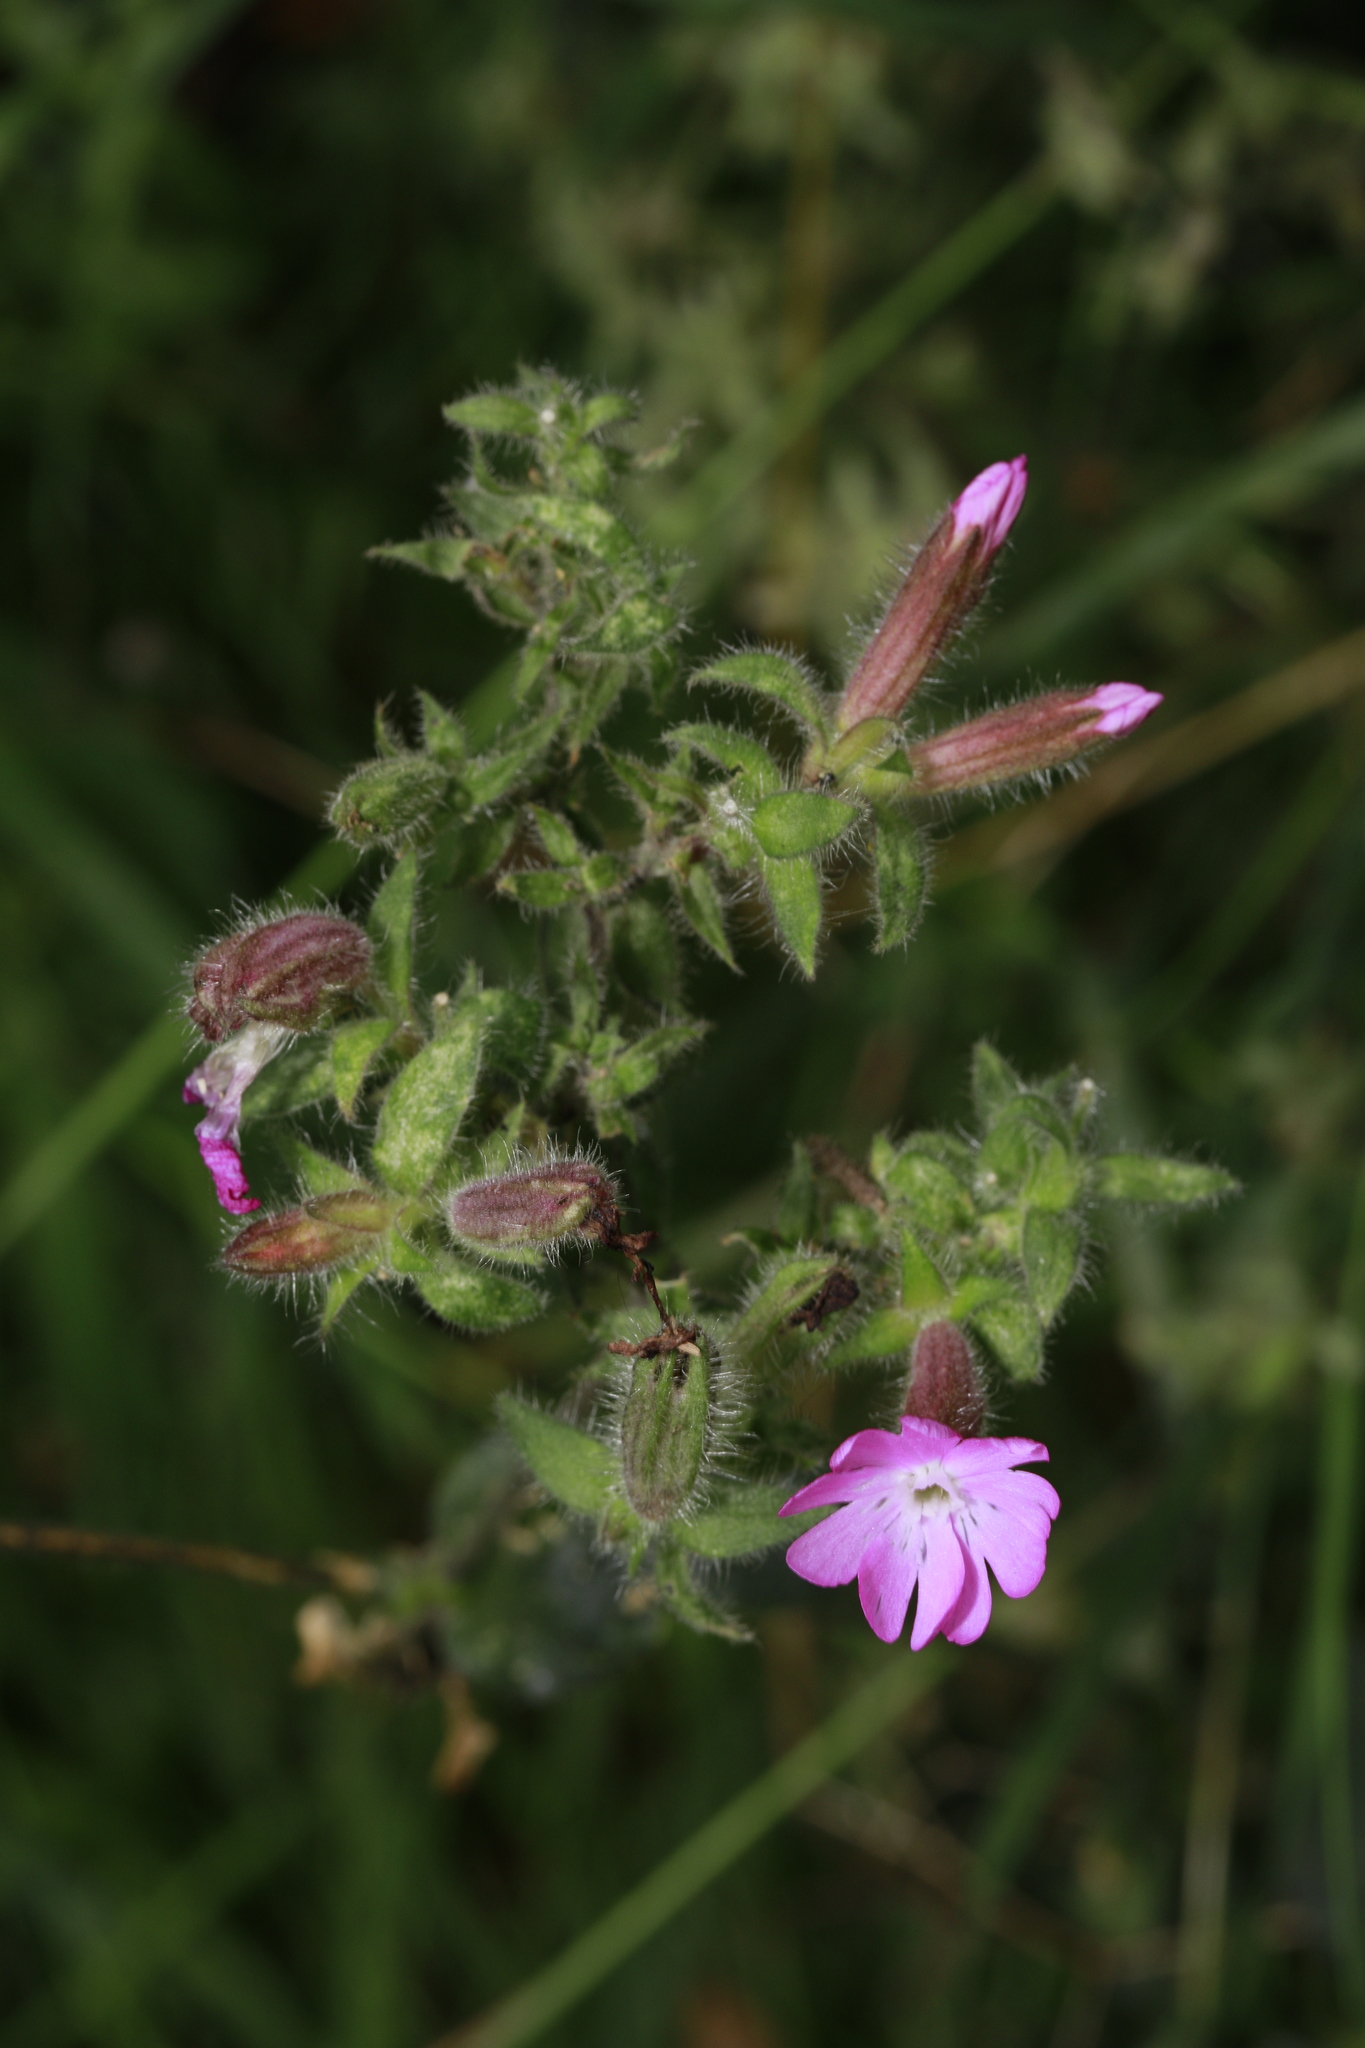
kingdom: Plantae
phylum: Tracheophyta
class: Magnoliopsida
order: Caryophyllales
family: Caryophyllaceae
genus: Silene
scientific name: Silene dioica
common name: Red campion
